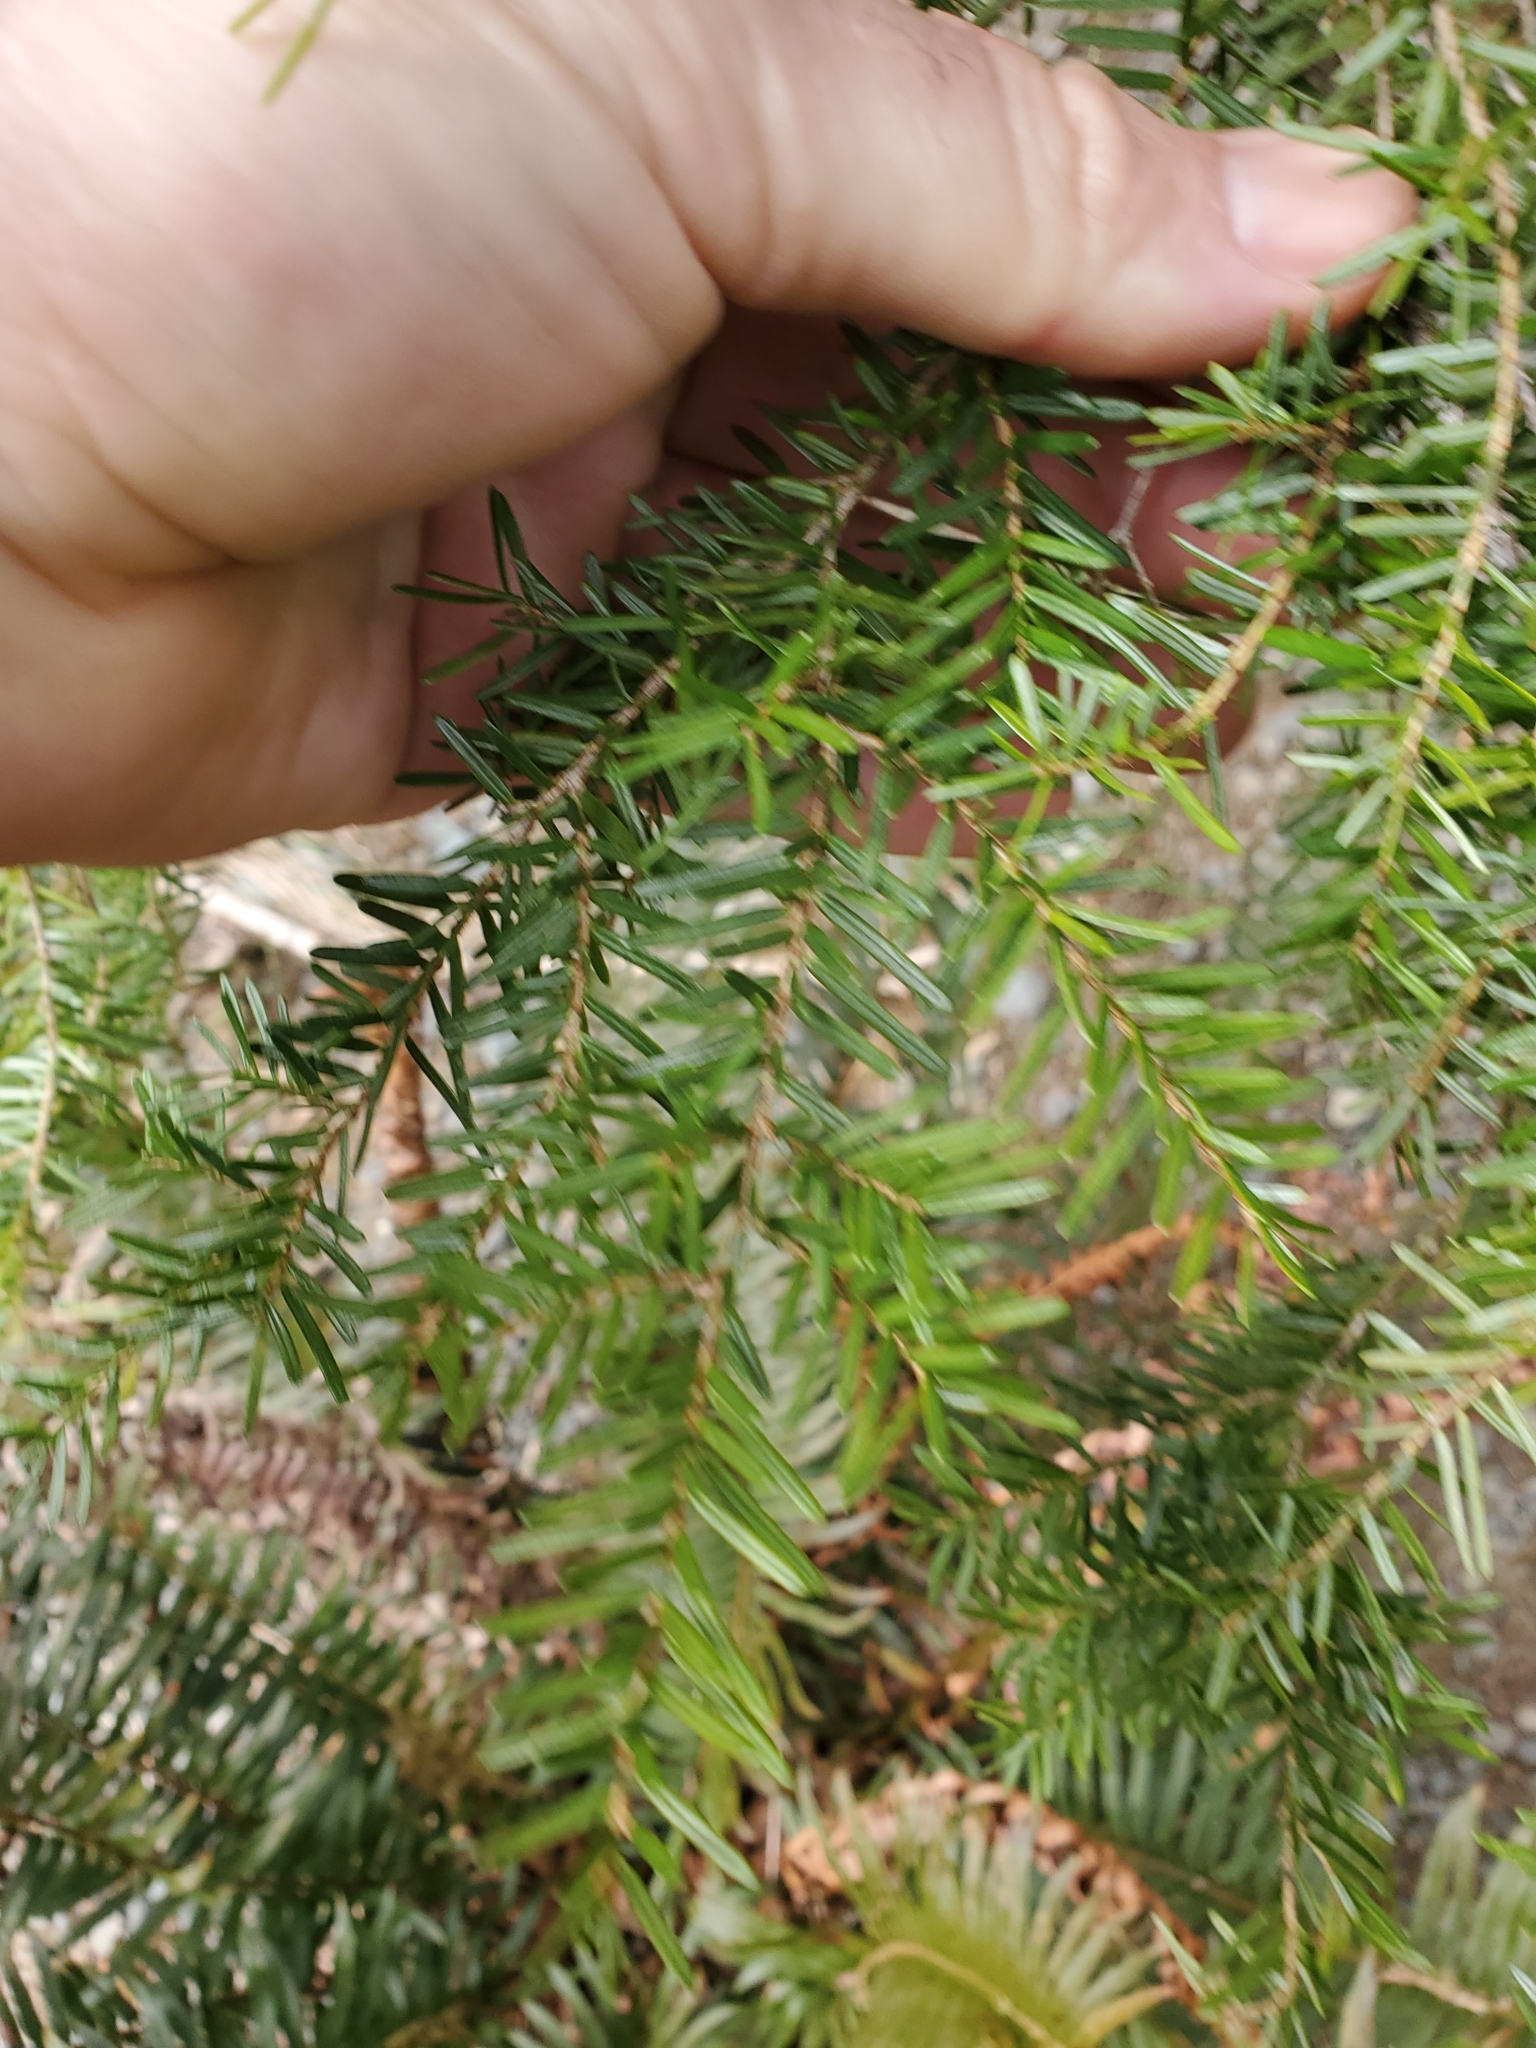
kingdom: Plantae
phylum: Tracheophyta
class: Pinopsida
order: Pinales
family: Pinaceae
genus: Tsuga
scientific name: Tsuga heterophylla
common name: Western hemlock
